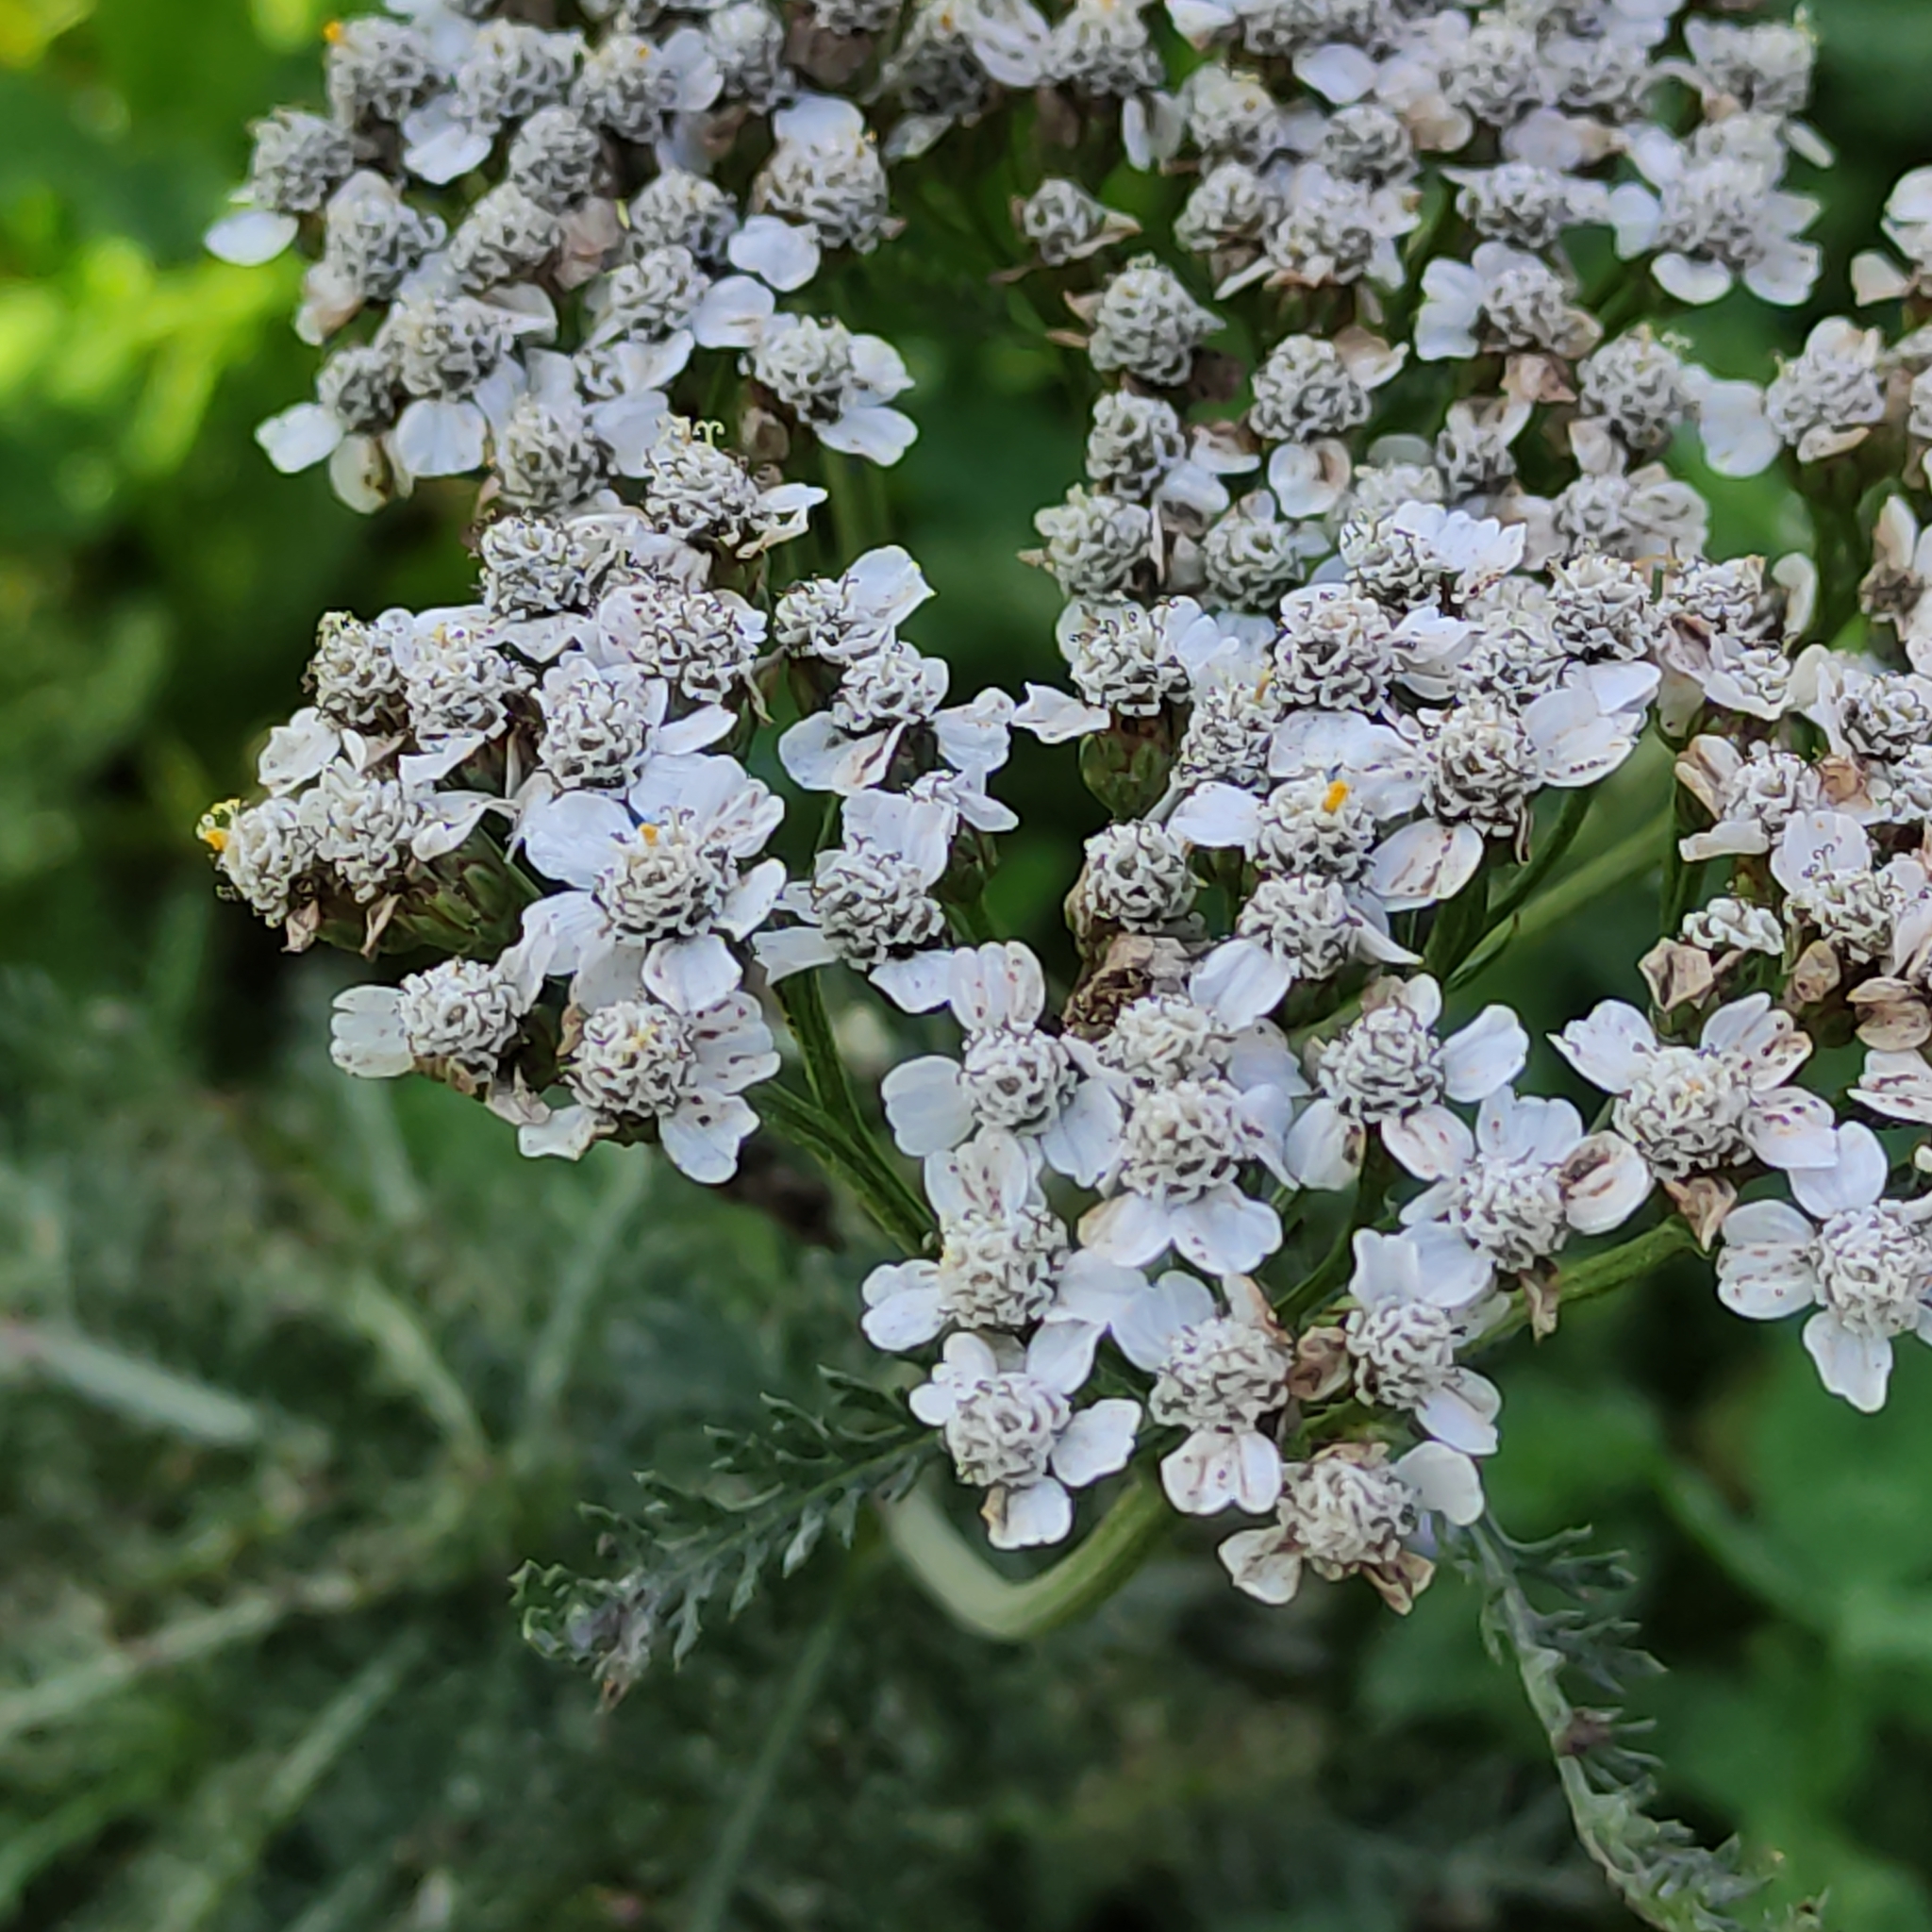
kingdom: Plantae
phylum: Tracheophyta
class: Magnoliopsida
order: Asterales
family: Asteraceae
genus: Achillea
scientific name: Achillea millefolium
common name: Yarrow
